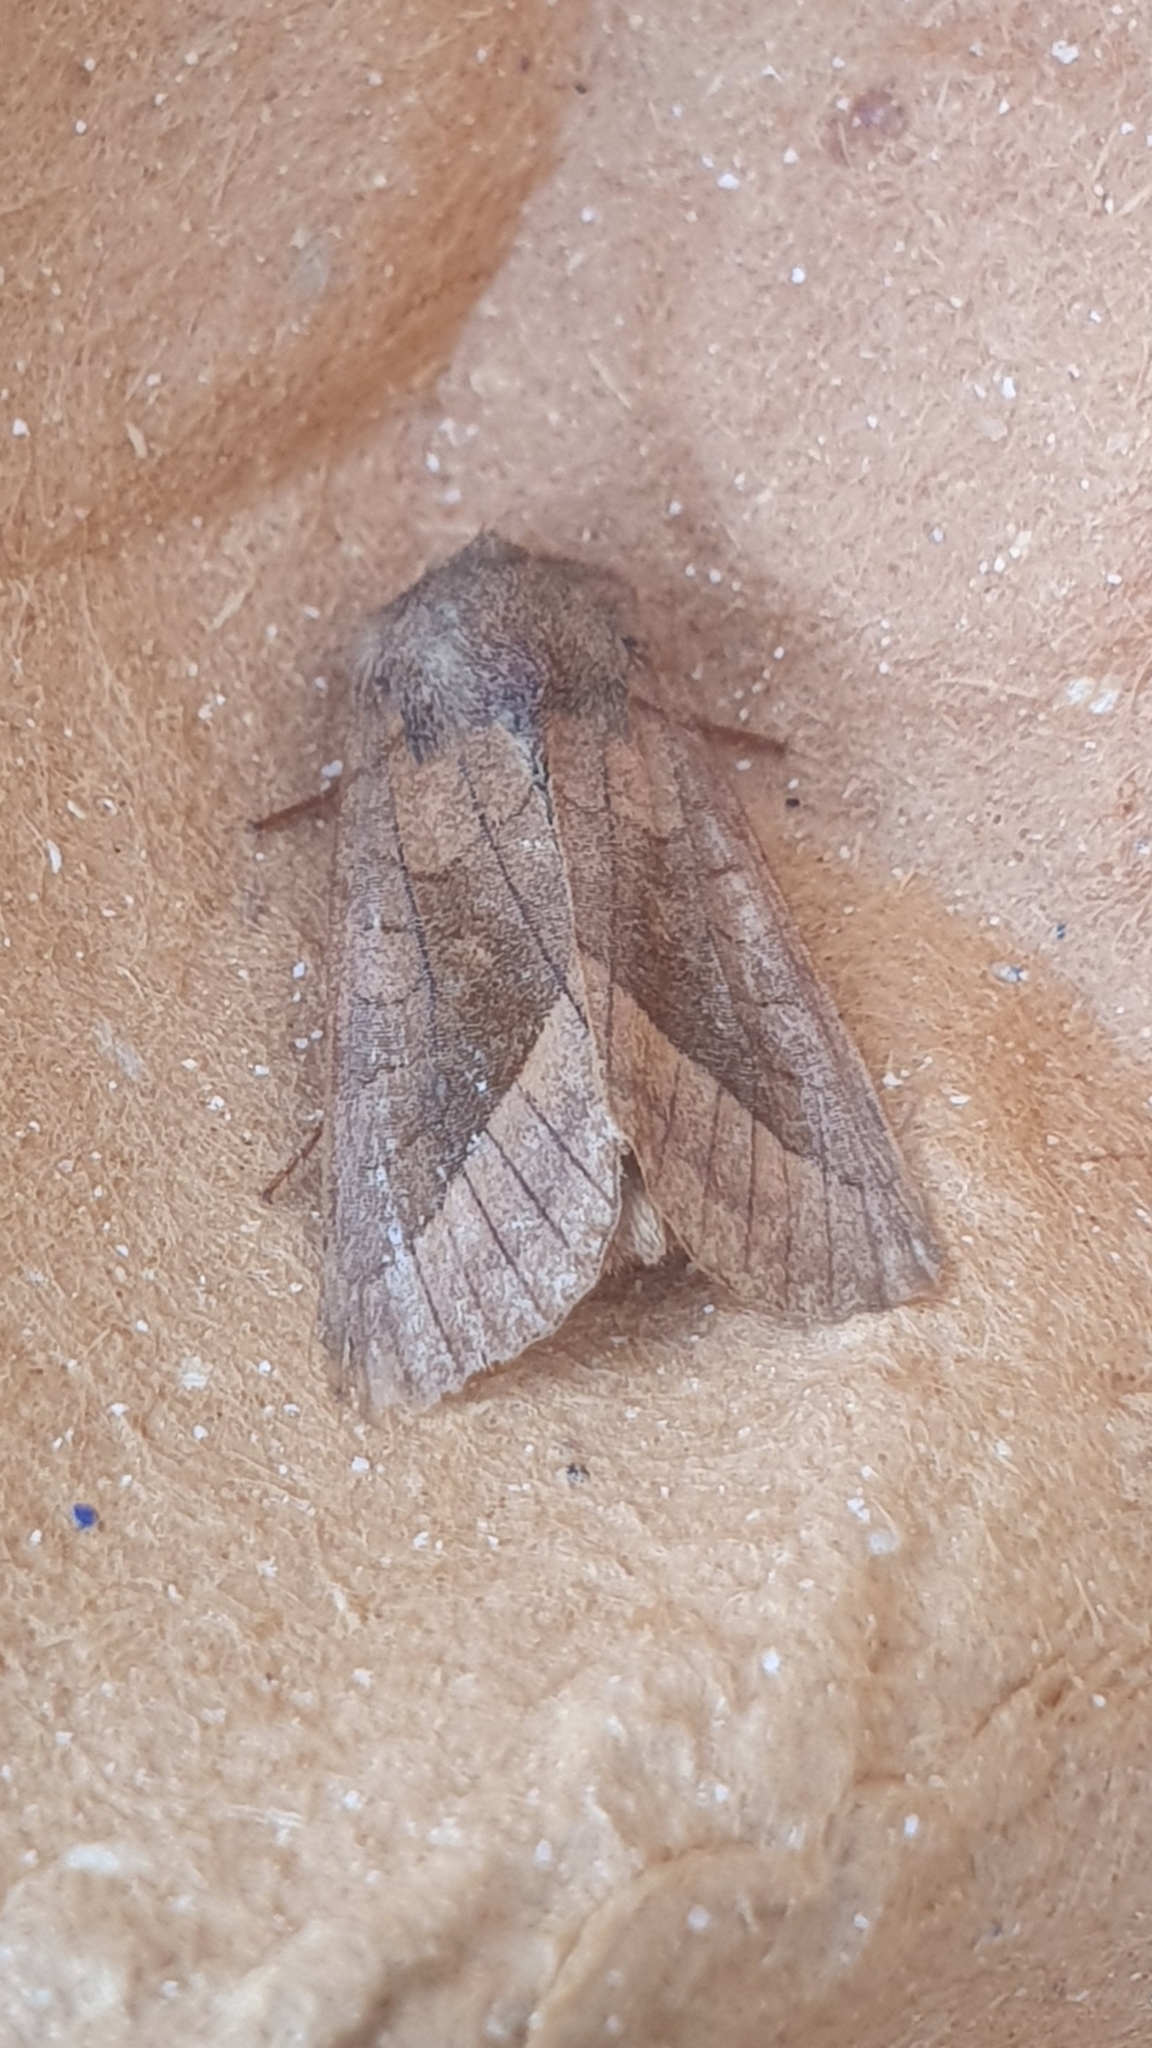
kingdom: Animalia
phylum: Arthropoda
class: Insecta
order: Lepidoptera
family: Noctuidae
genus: Hydraecia
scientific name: Hydraecia micacea
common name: Rosy rustic
